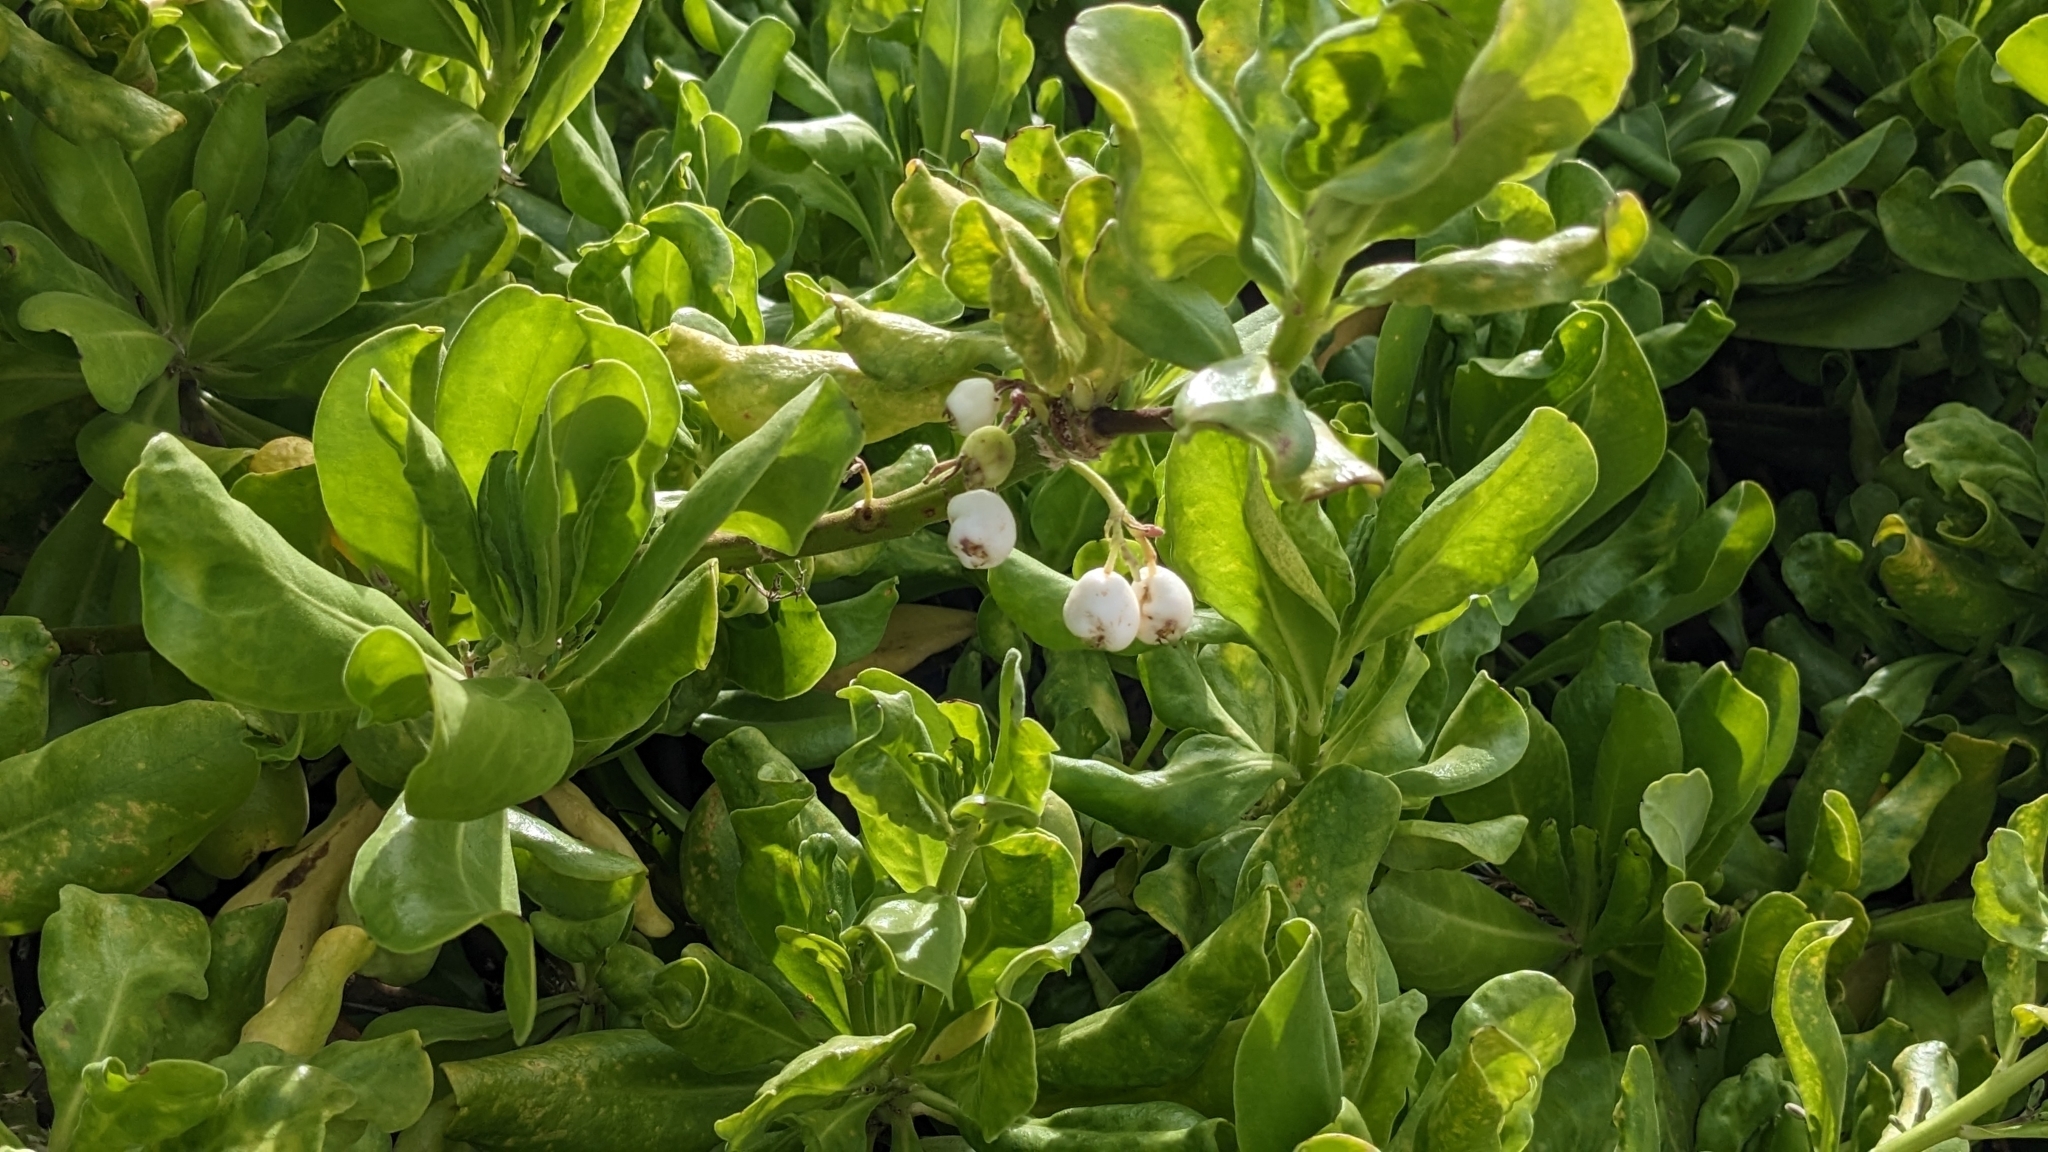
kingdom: Plantae
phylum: Tracheophyta
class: Magnoliopsida
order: Asterales
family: Goodeniaceae
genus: Scaevola
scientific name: Scaevola taccada
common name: Sea lettucetree
